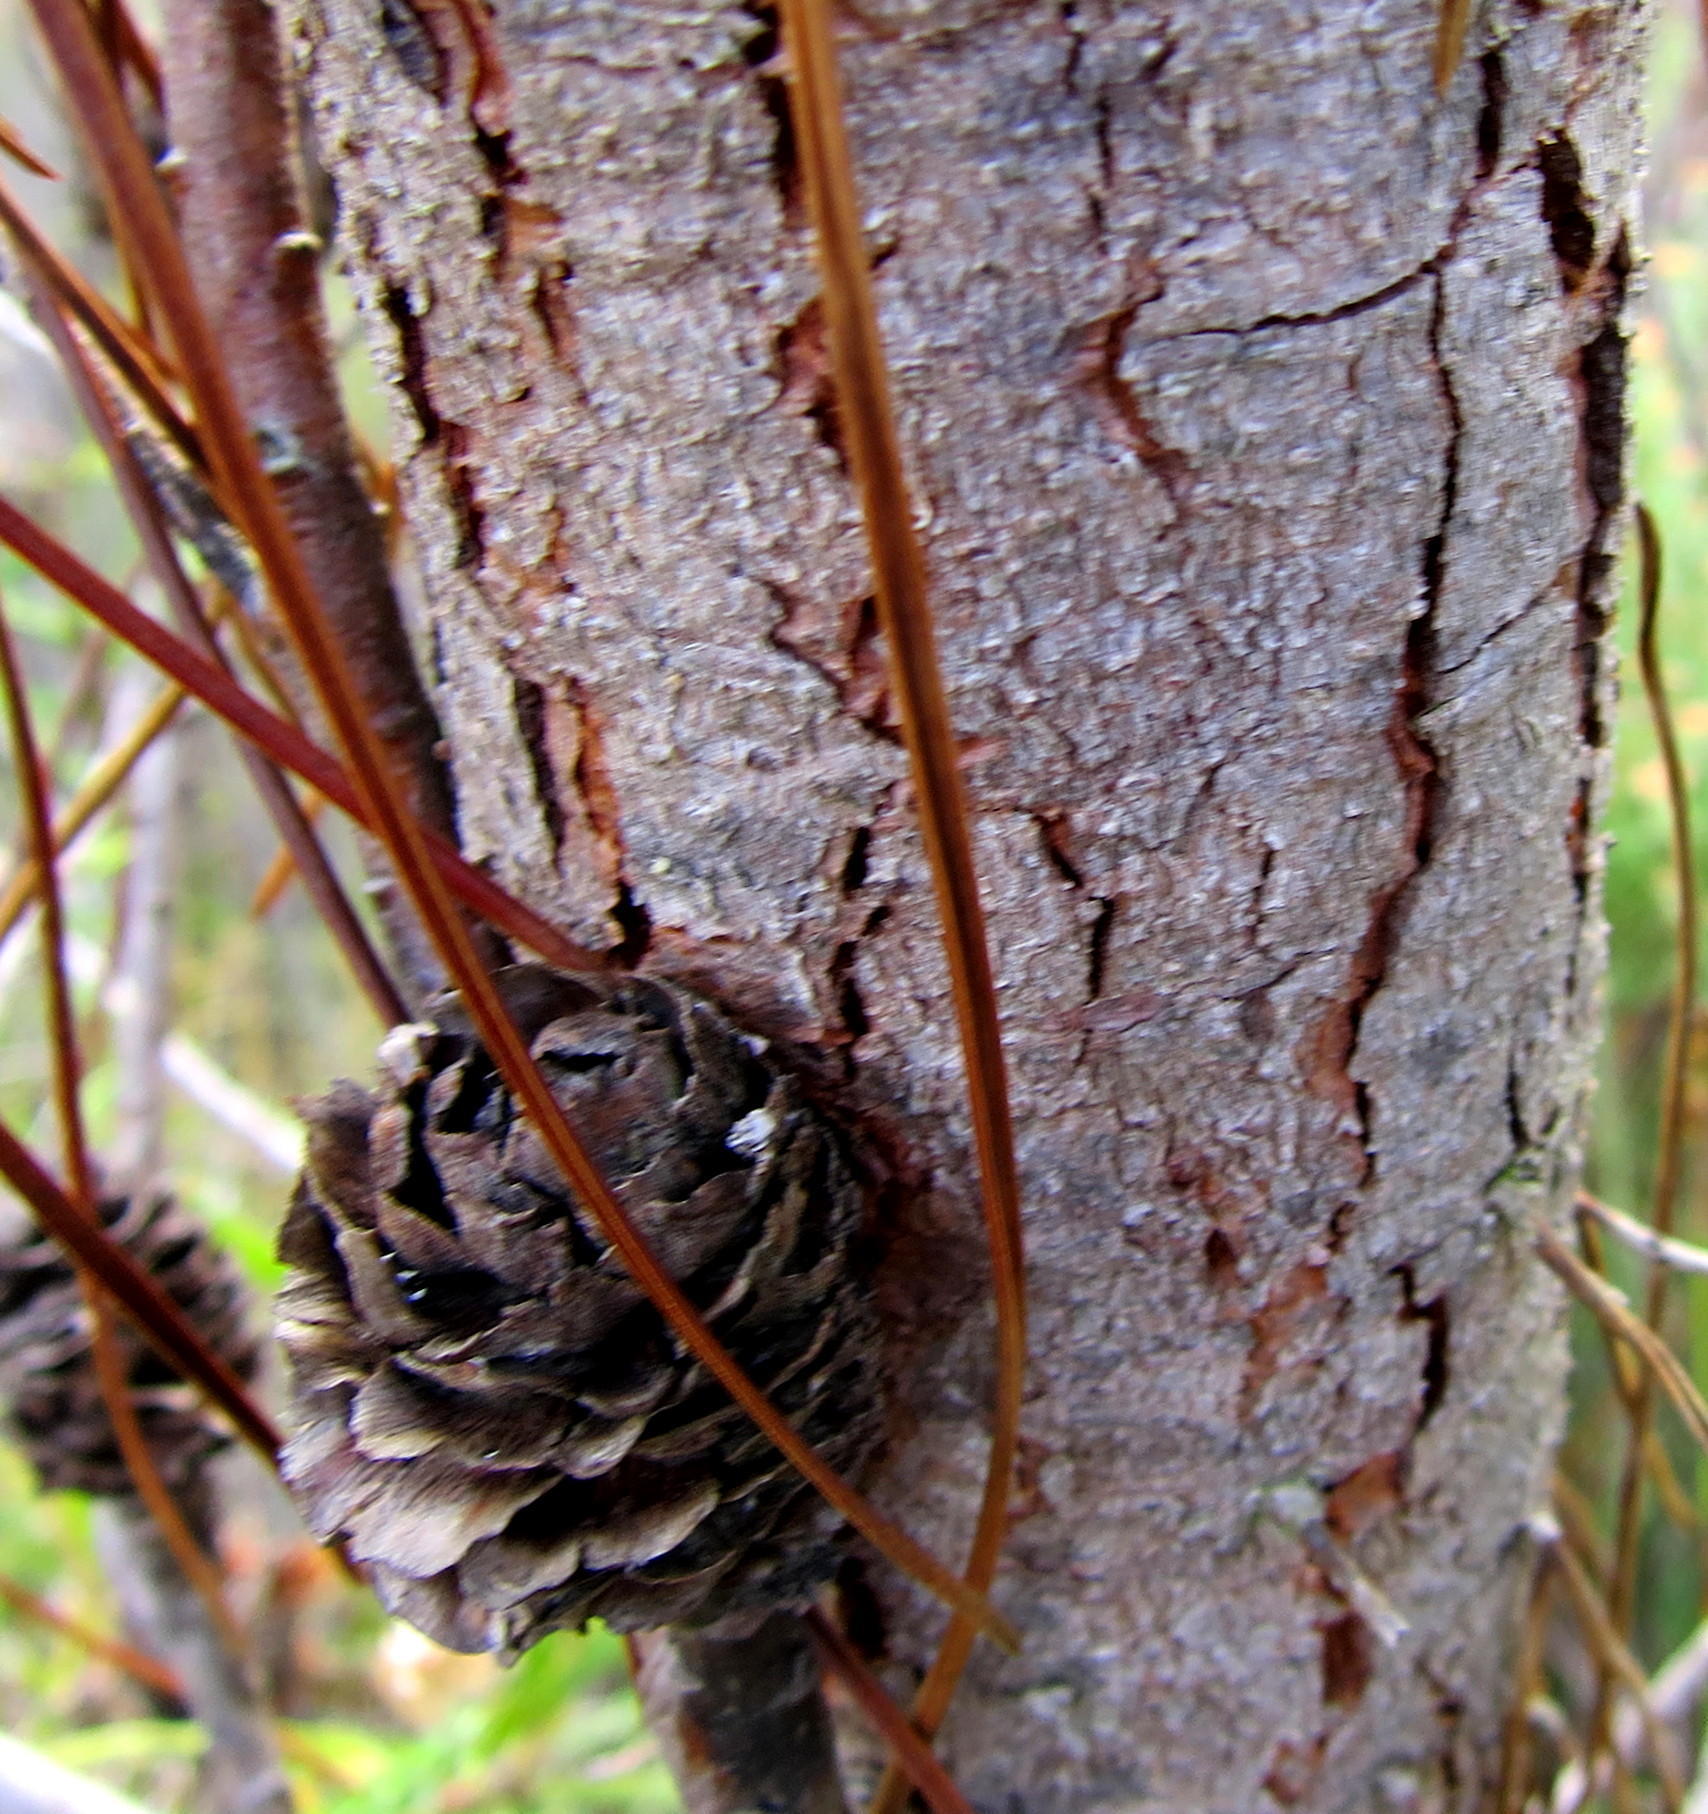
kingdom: Plantae
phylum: Tracheophyta
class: Pinopsida
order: Pinales
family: Pinaceae
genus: Pinus
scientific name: Pinus elliottii
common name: Slash pine
